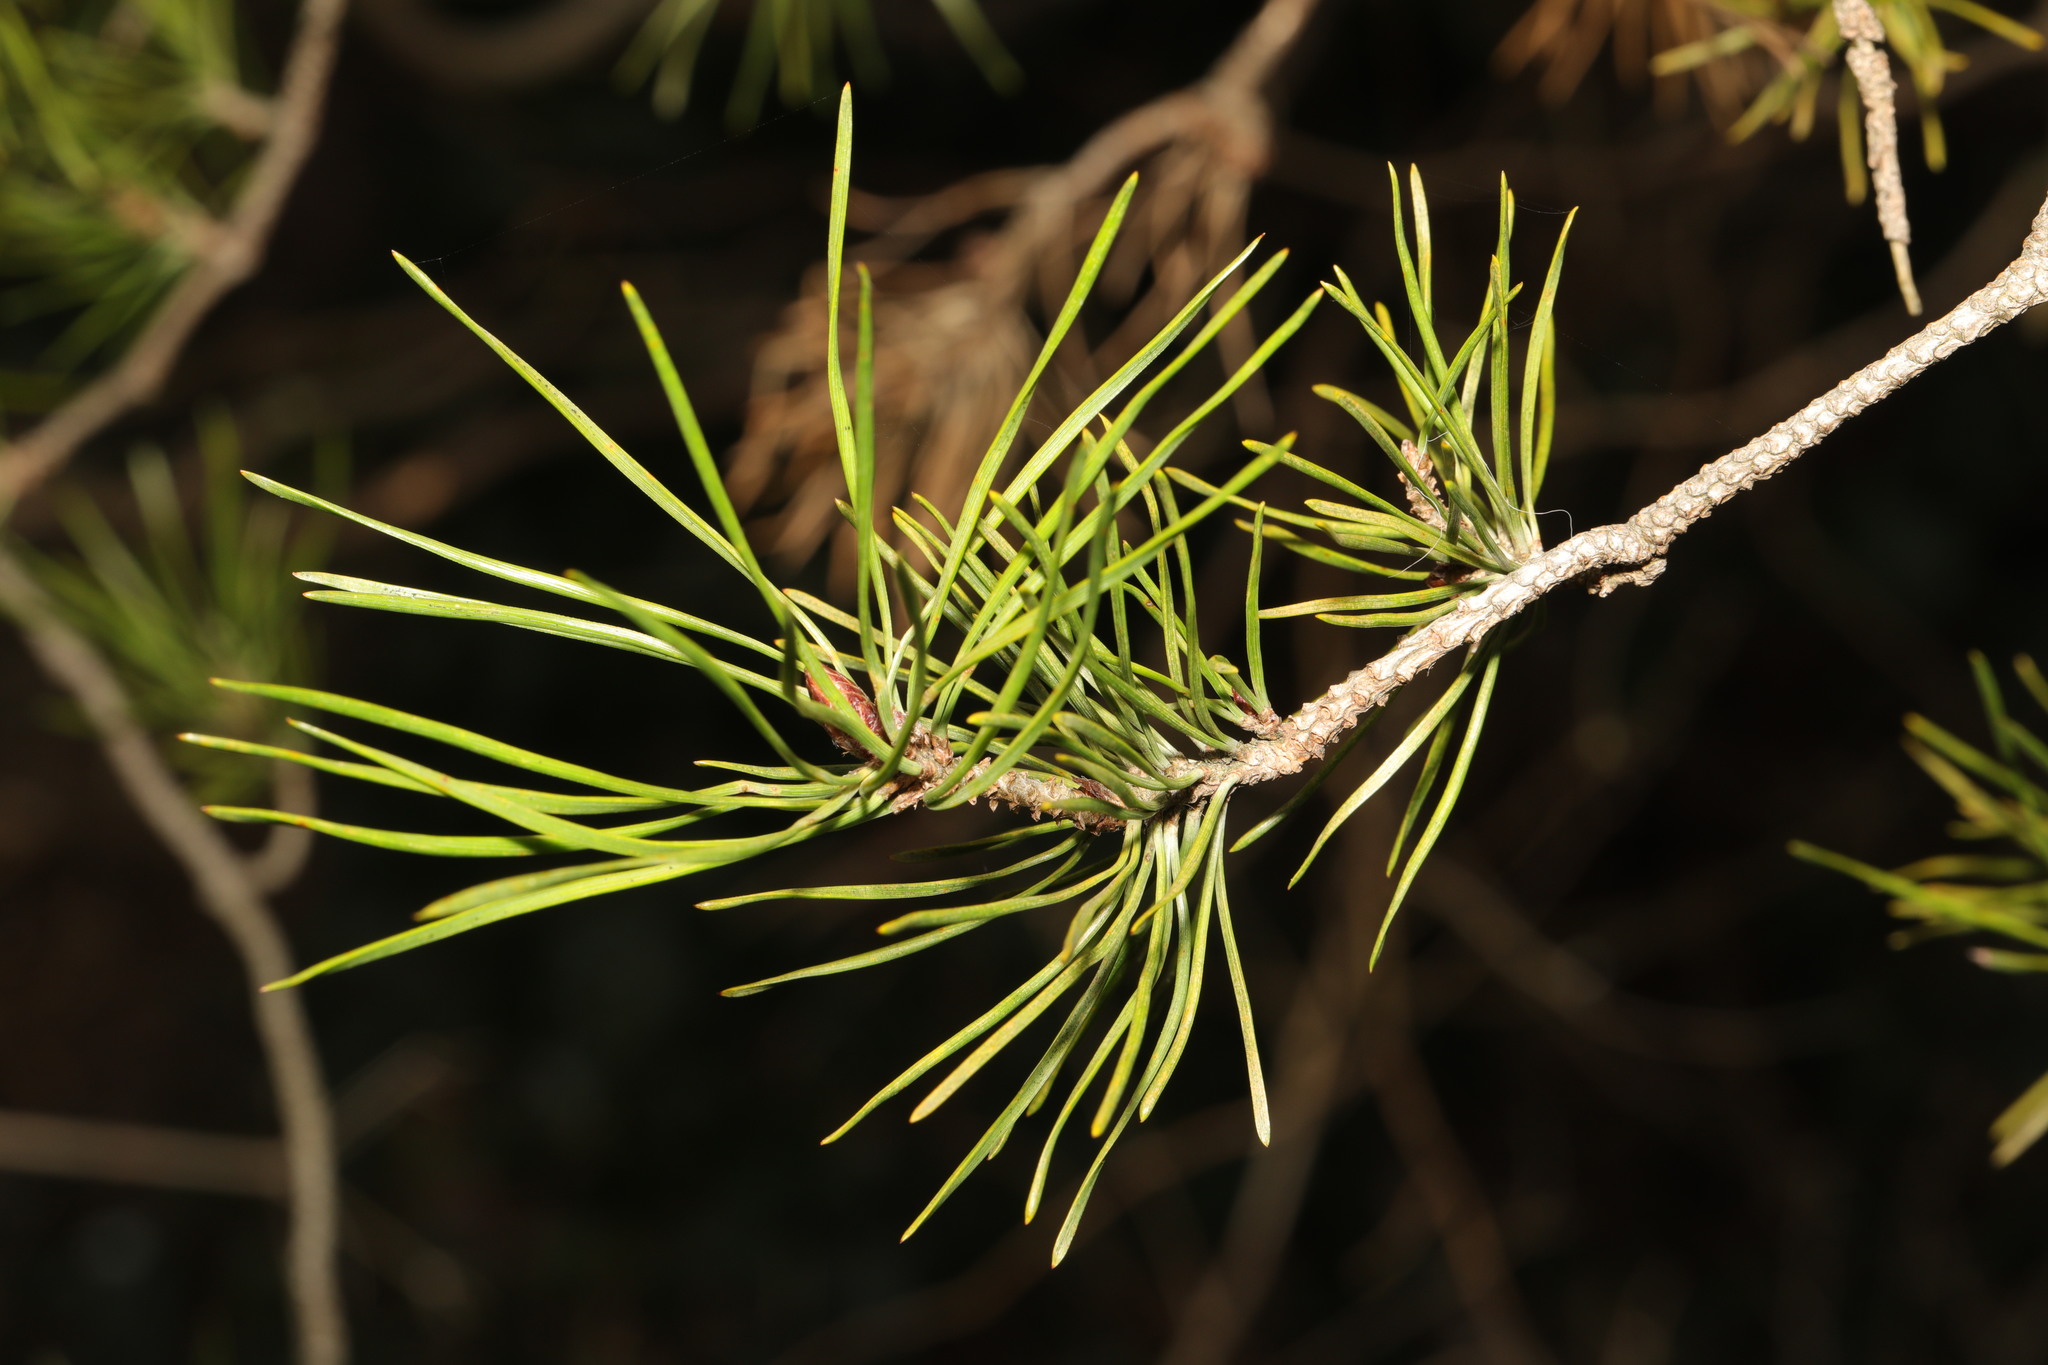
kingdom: Plantae
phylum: Tracheophyta
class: Pinopsida
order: Pinales
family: Pinaceae
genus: Pinus
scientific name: Pinus sylvestris
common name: Scots pine
